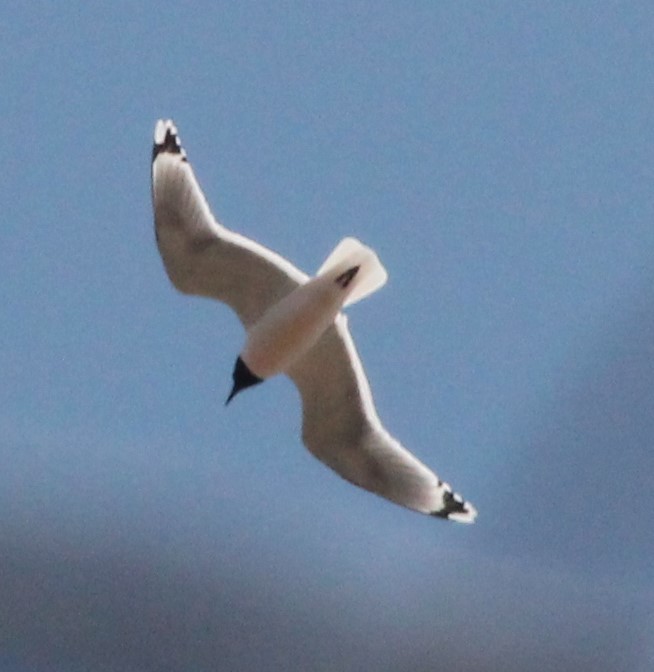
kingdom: Animalia
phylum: Chordata
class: Aves
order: Charadriiformes
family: Laridae
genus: Leucophaeus
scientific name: Leucophaeus pipixcan
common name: Franklin's gull
